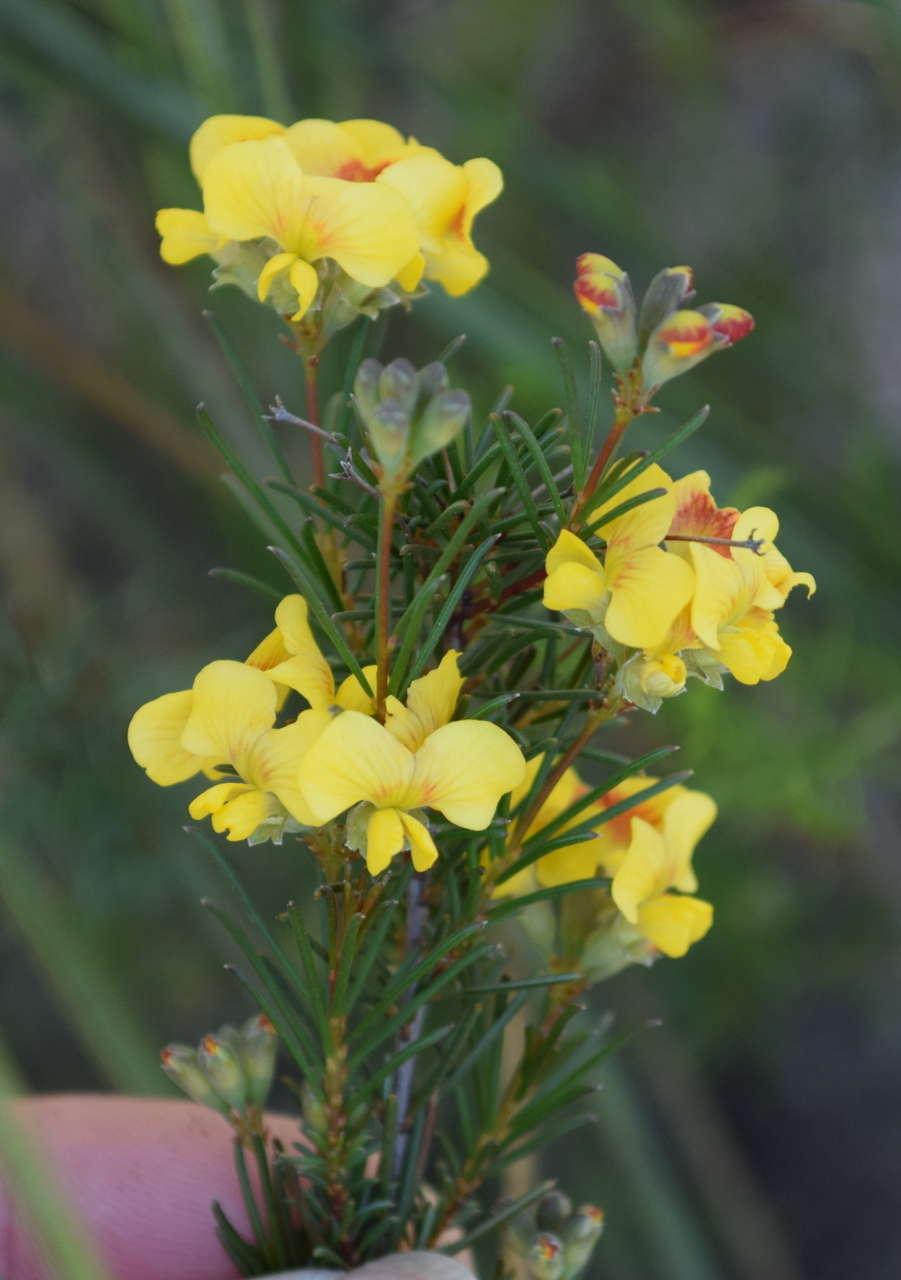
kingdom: Plantae
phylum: Tracheophyta
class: Magnoliopsida
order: Fabales
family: Fabaceae
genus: Dillwynia
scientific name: Dillwynia glaberrima
